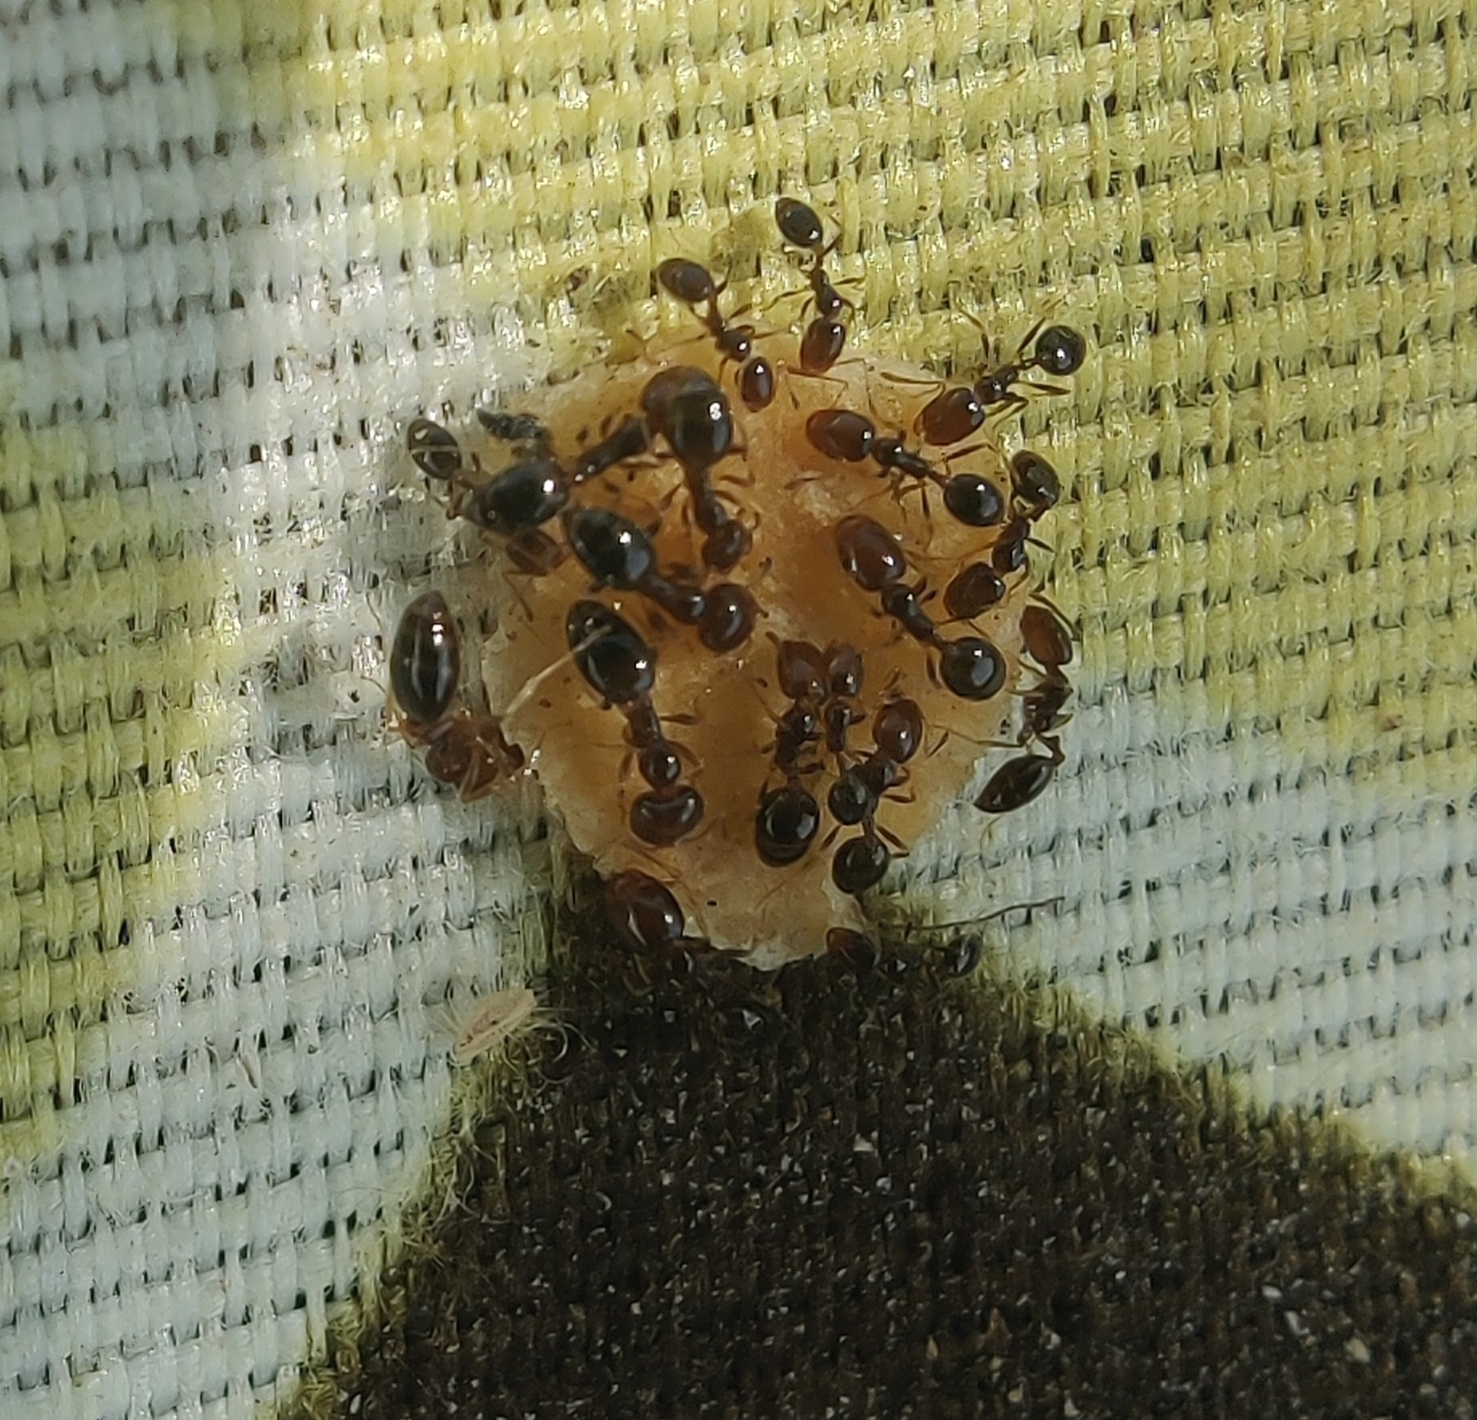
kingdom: Animalia
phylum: Arthropoda
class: Insecta
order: Hymenoptera
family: Formicidae
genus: Trichomyrmex
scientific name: Trichomyrmex mayri
